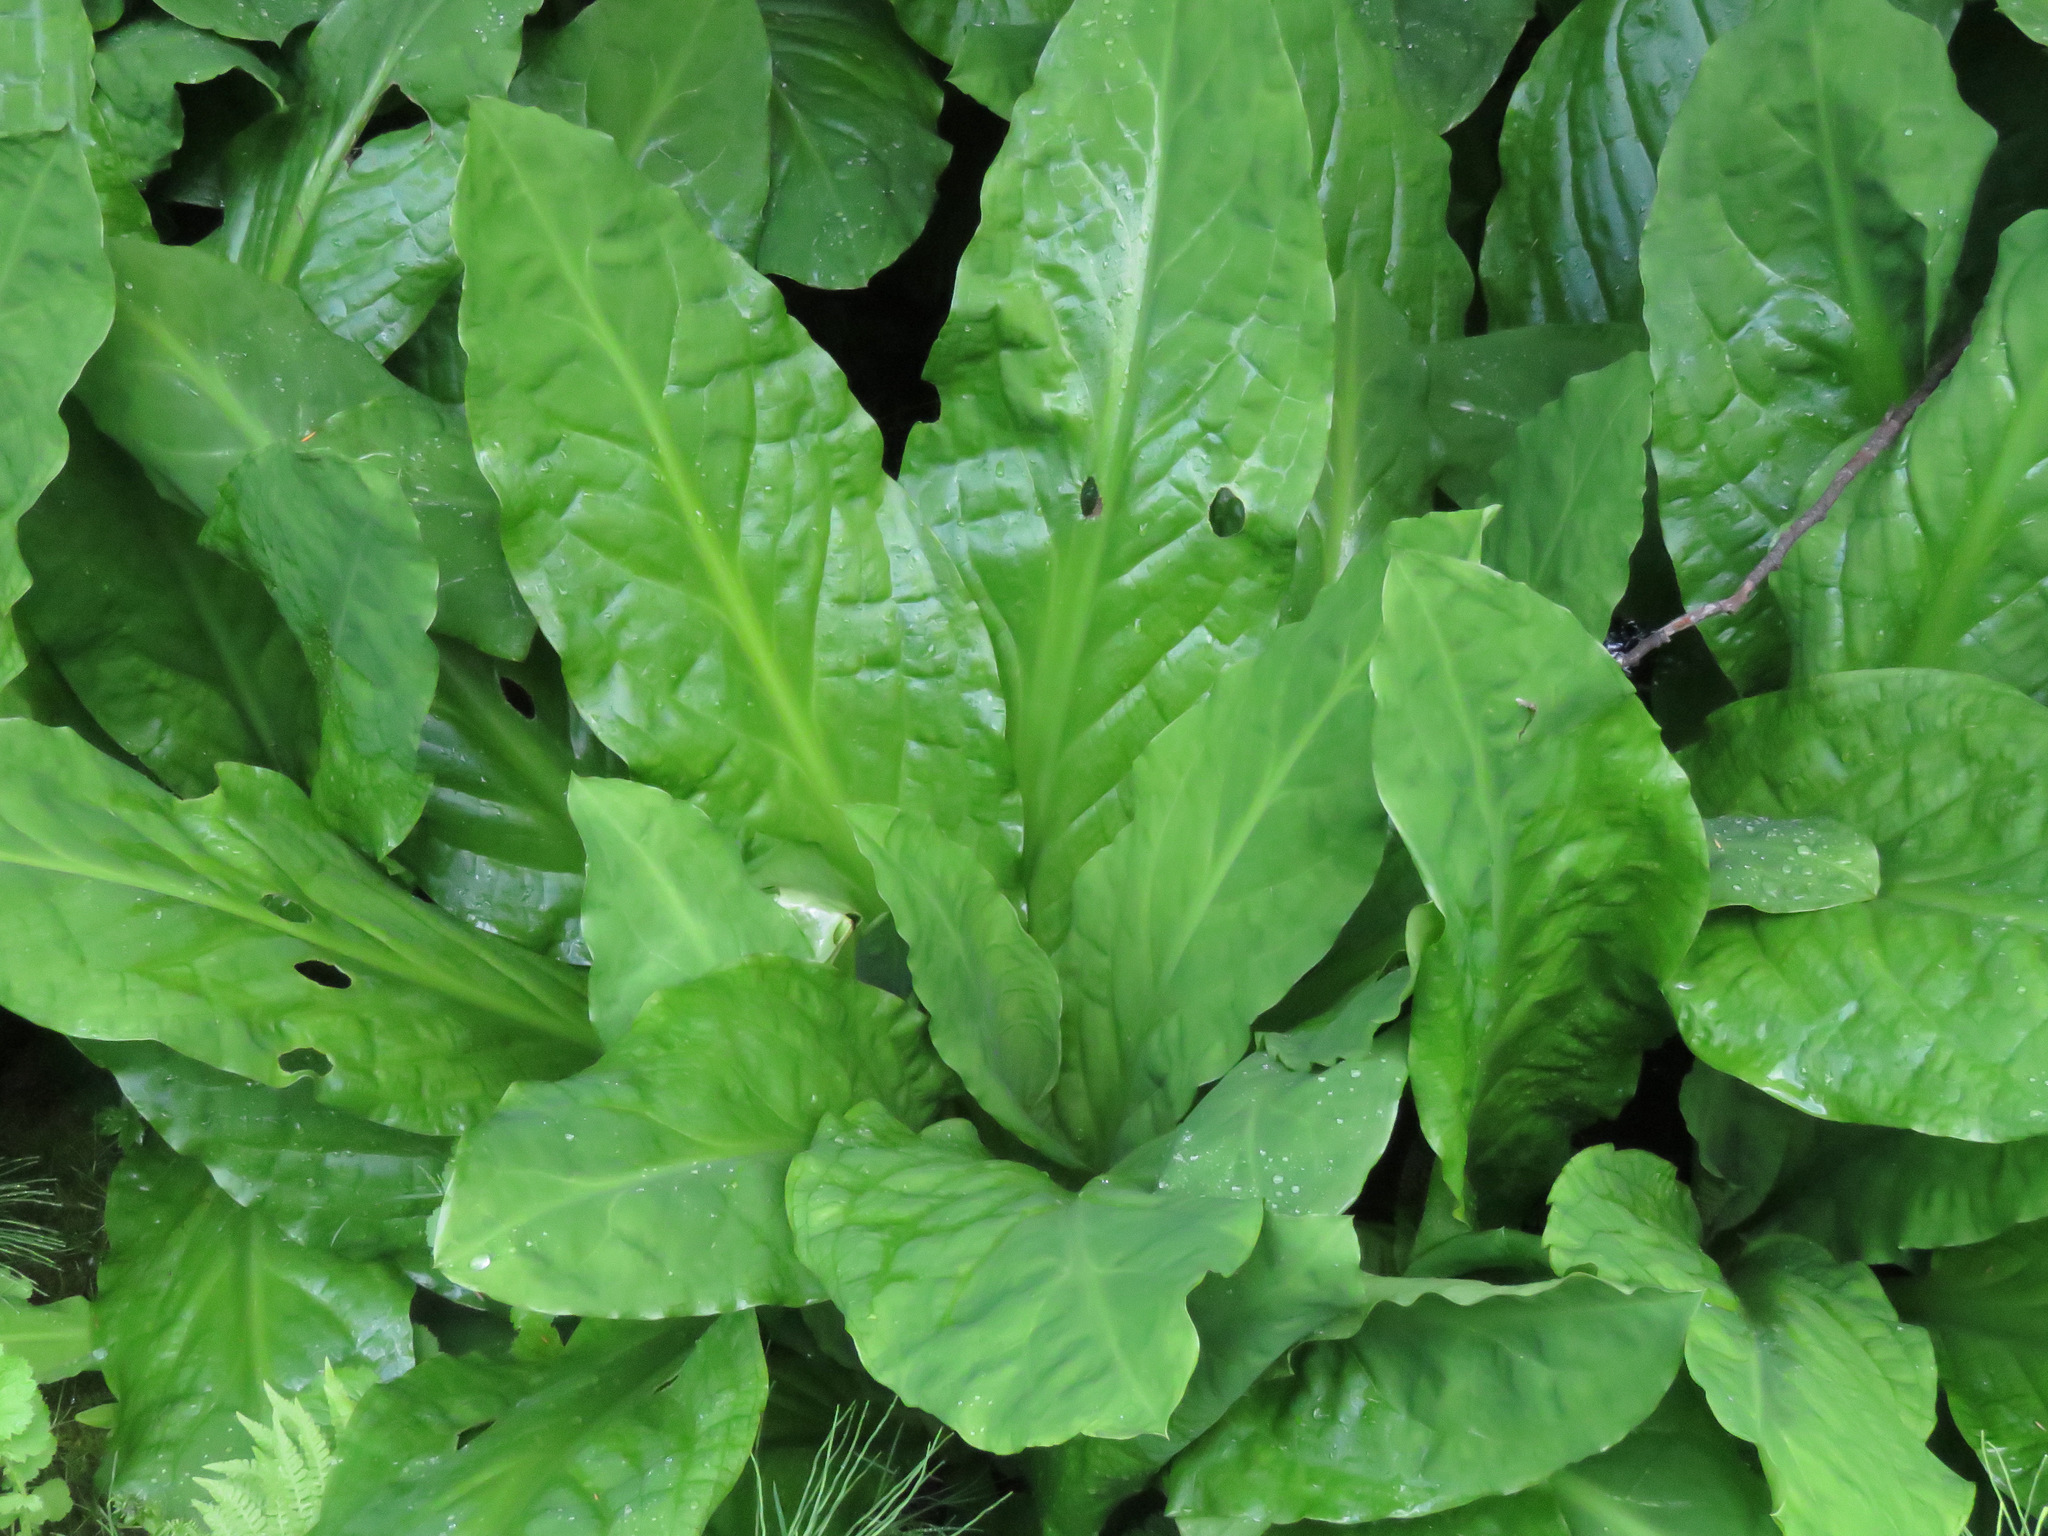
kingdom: Plantae
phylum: Tracheophyta
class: Liliopsida
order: Alismatales
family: Araceae
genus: Lysichiton
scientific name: Lysichiton americanus
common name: American skunk cabbage
